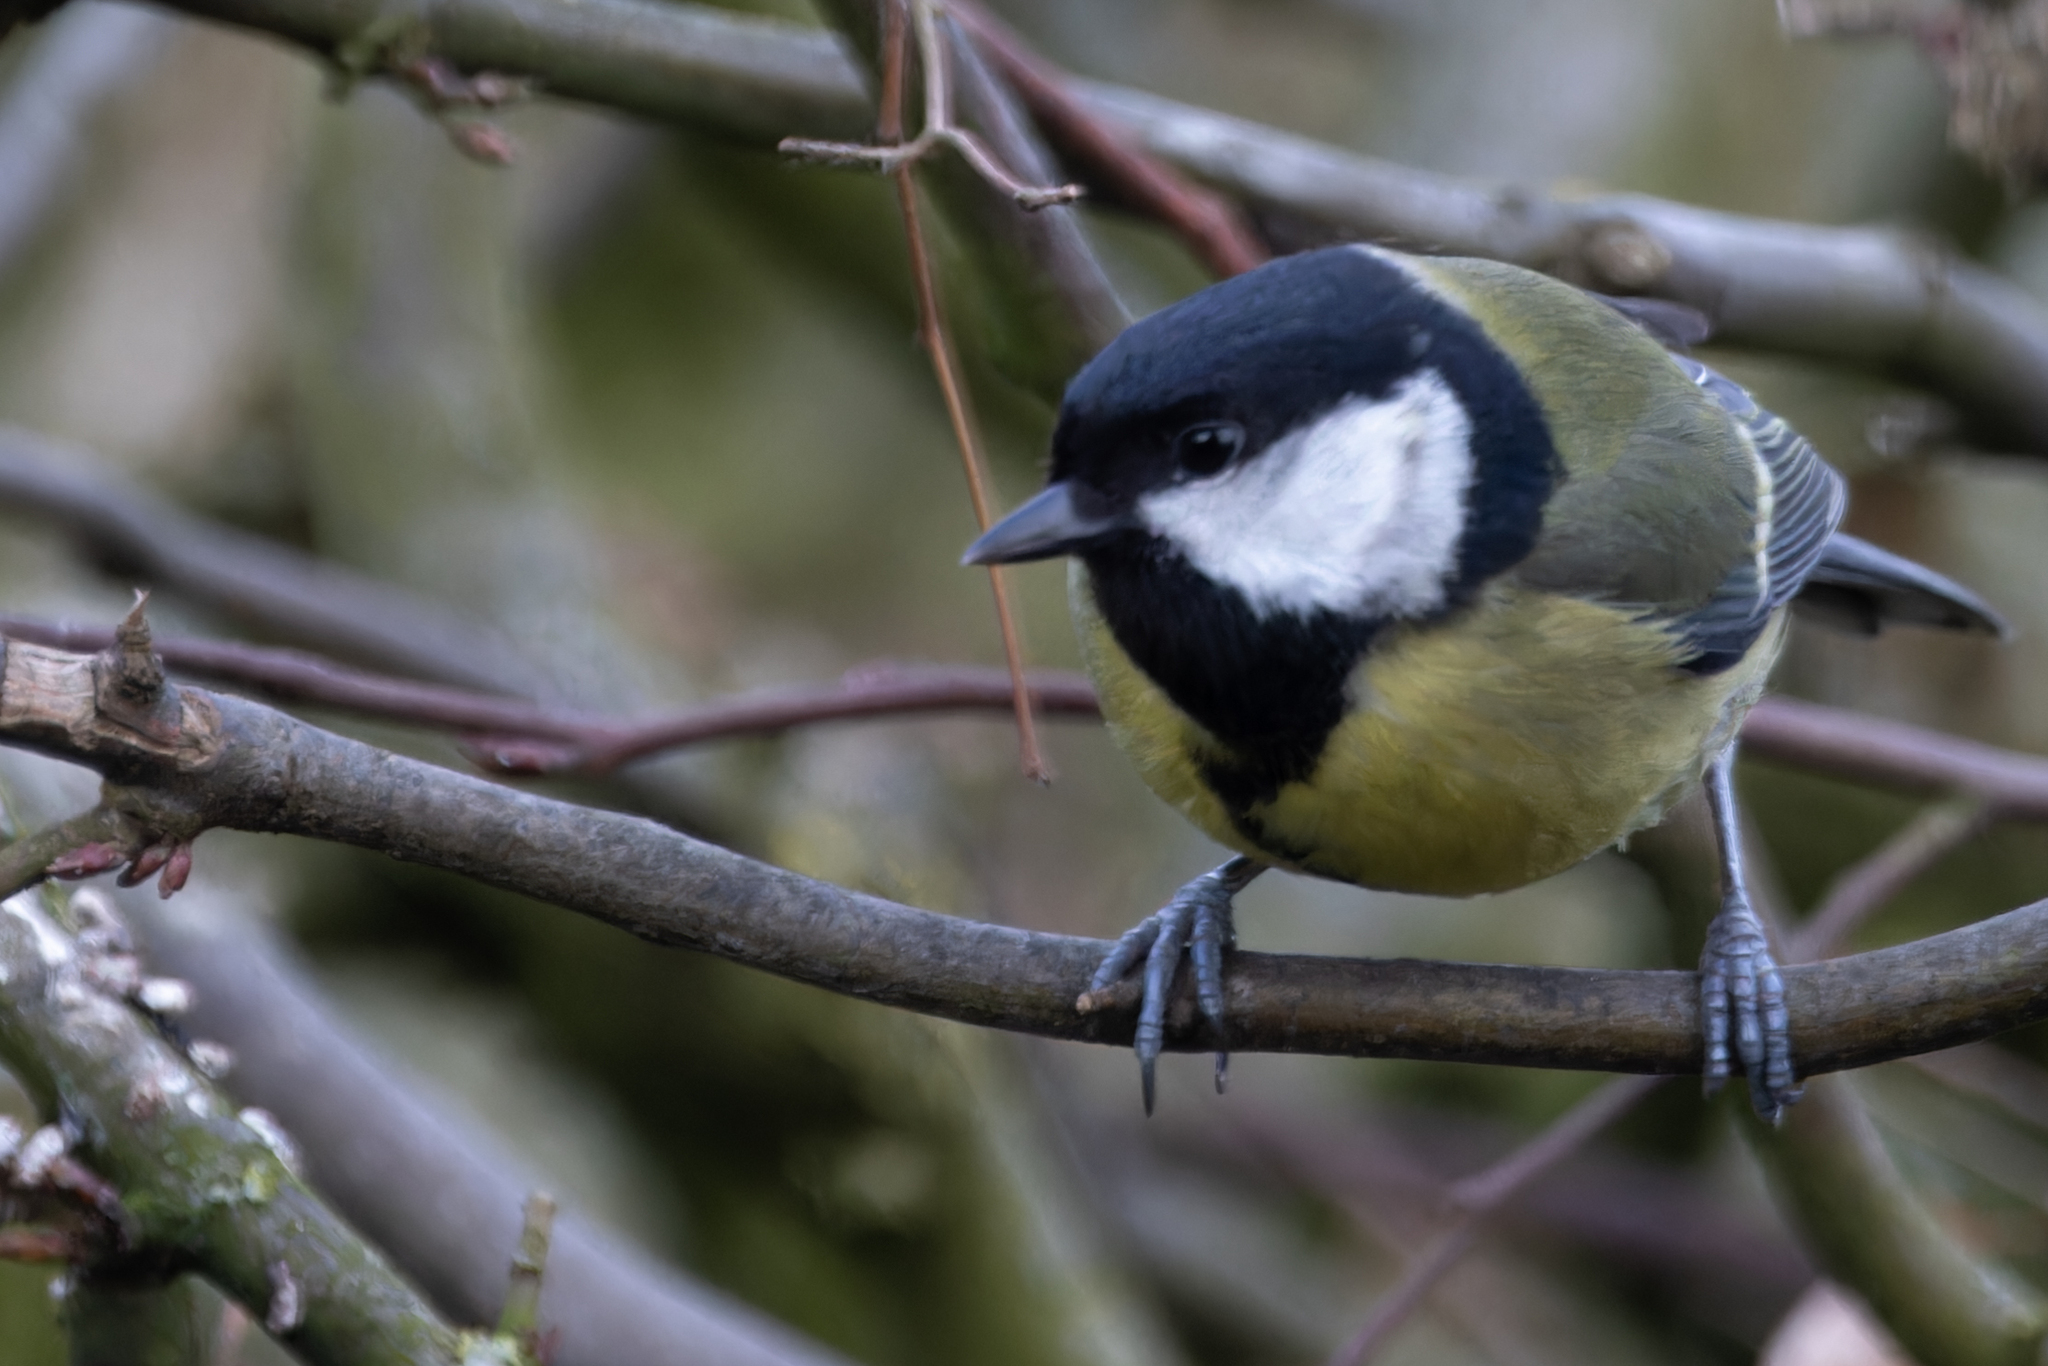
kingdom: Animalia
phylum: Chordata
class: Aves
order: Passeriformes
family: Paridae
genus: Parus
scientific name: Parus major
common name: Great tit
